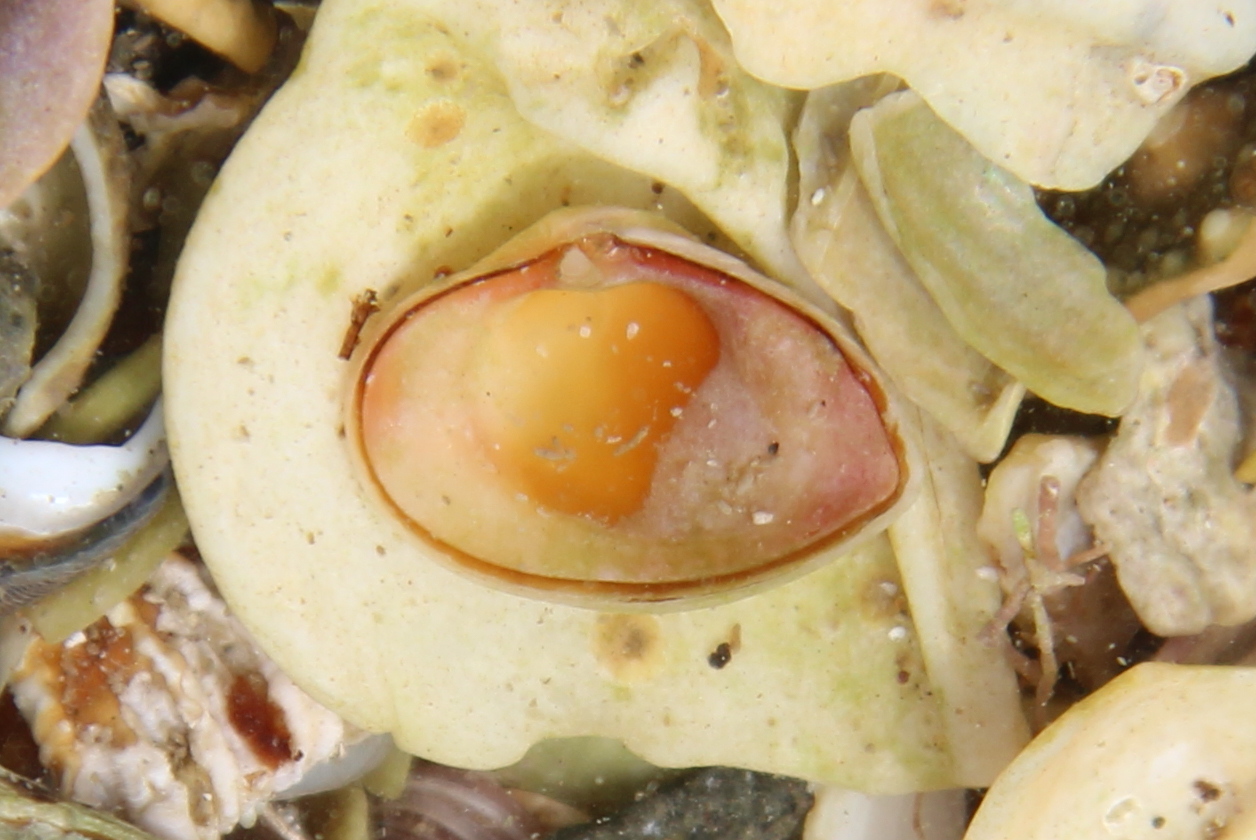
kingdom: Animalia
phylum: Mollusca
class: Bivalvia
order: Myida
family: Corbulidae
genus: Corbula
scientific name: Corbula zelandica
